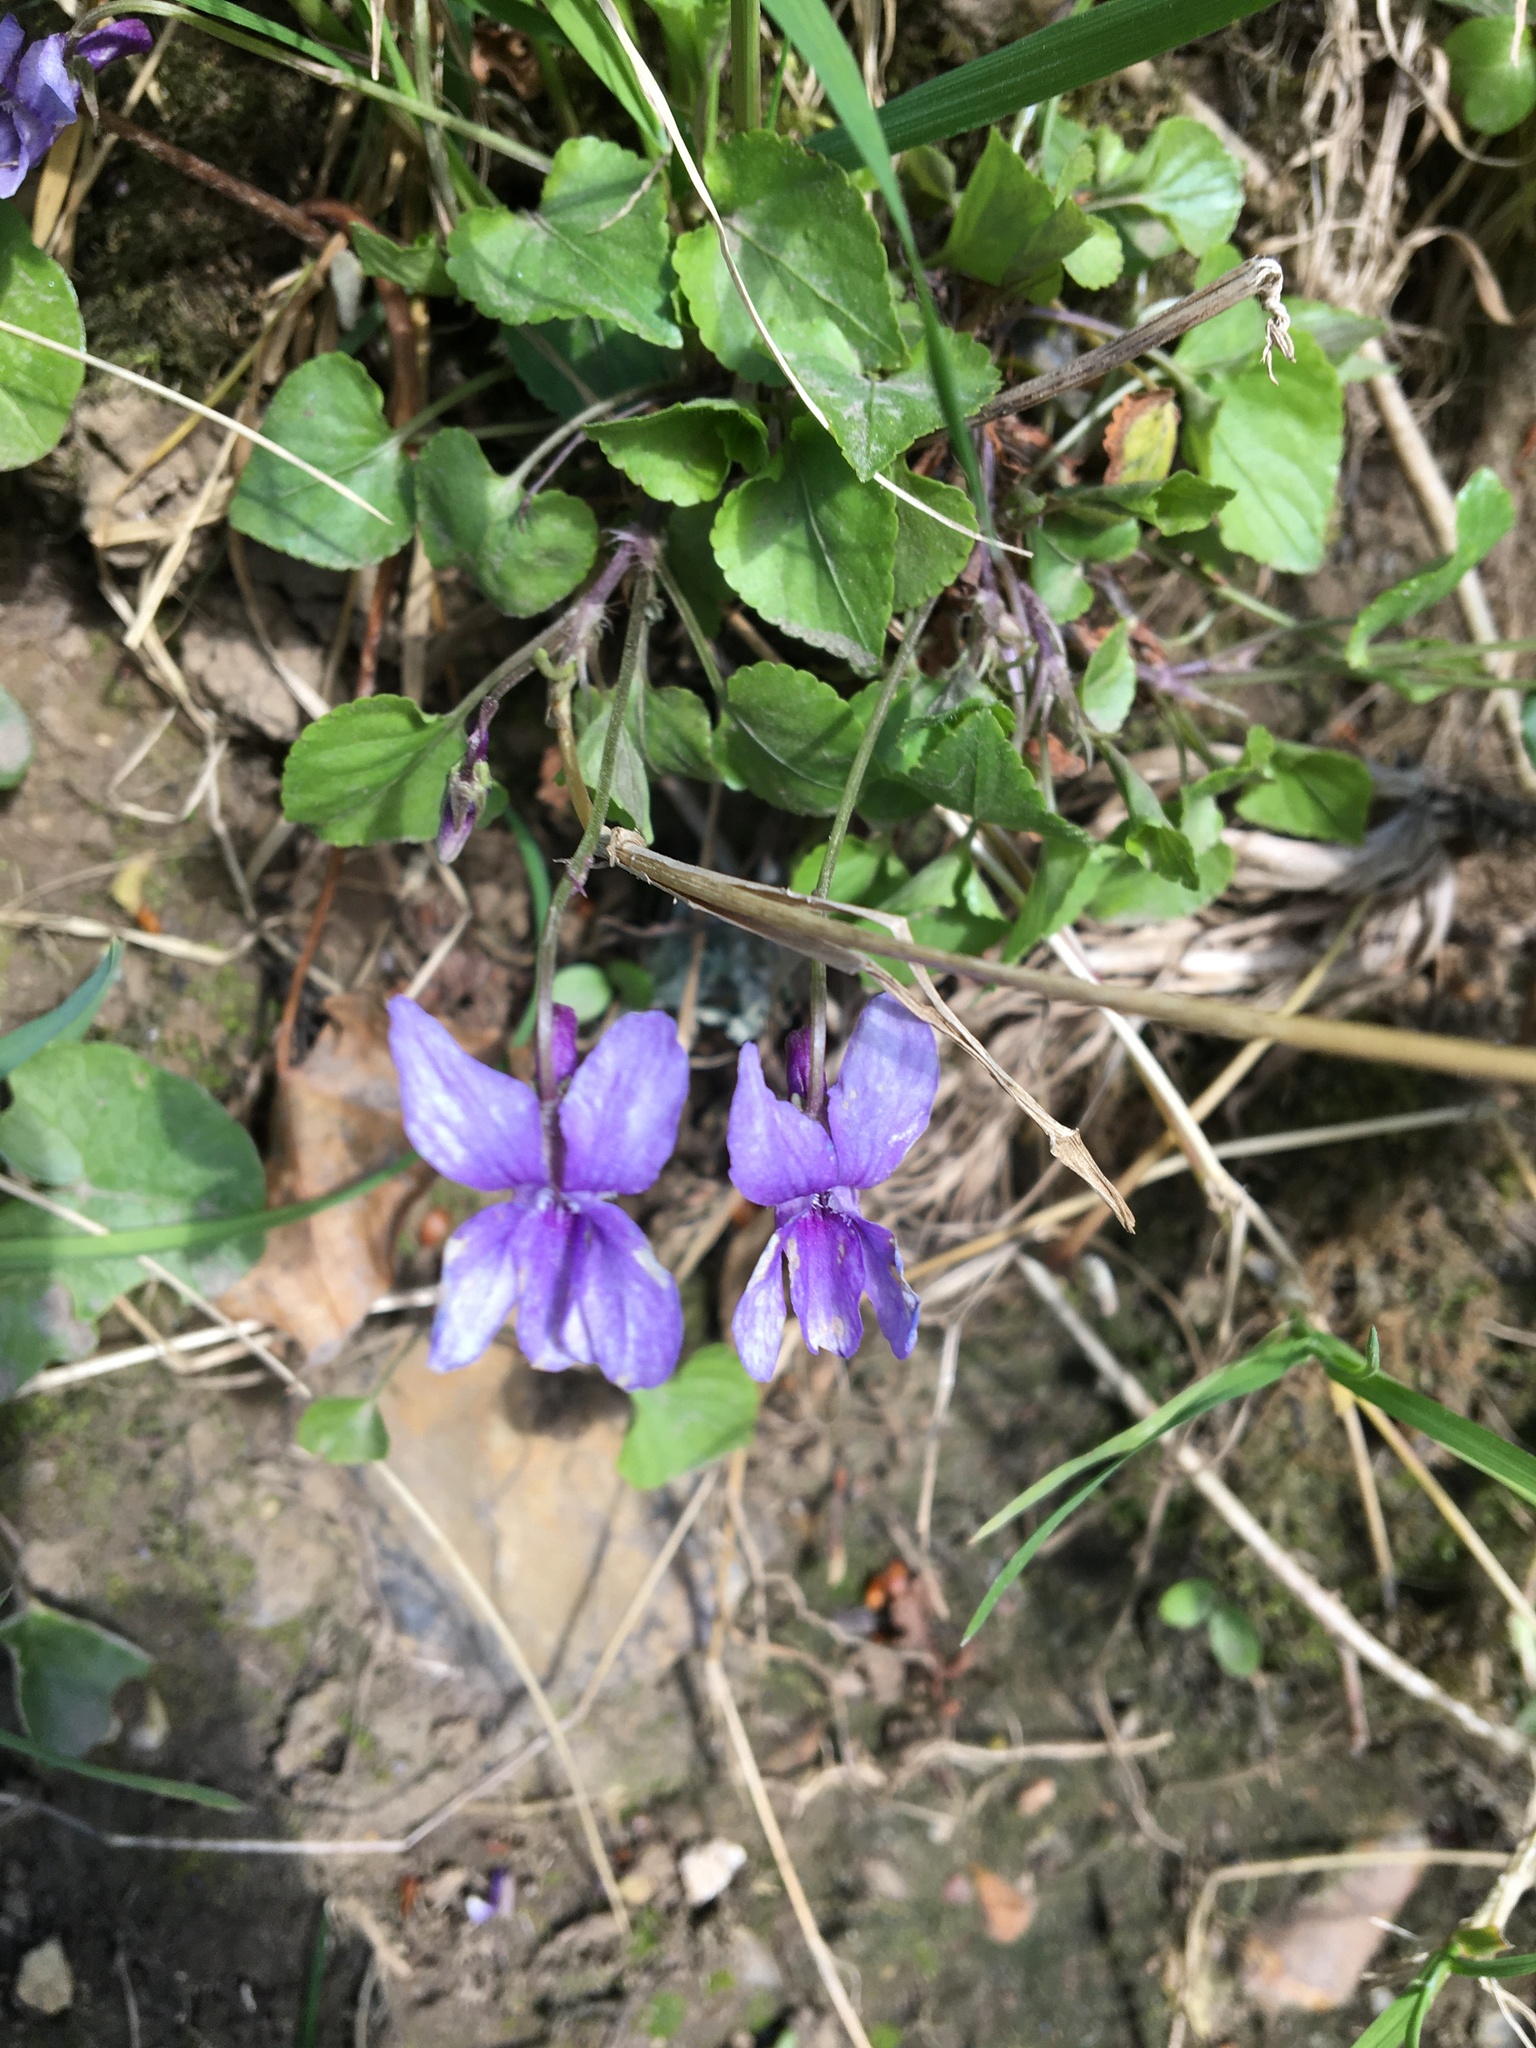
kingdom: Plantae
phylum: Tracheophyta
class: Magnoliopsida
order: Malpighiales
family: Violaceae
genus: Viola
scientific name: Viola reichenbachiana
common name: Early dog-violet
